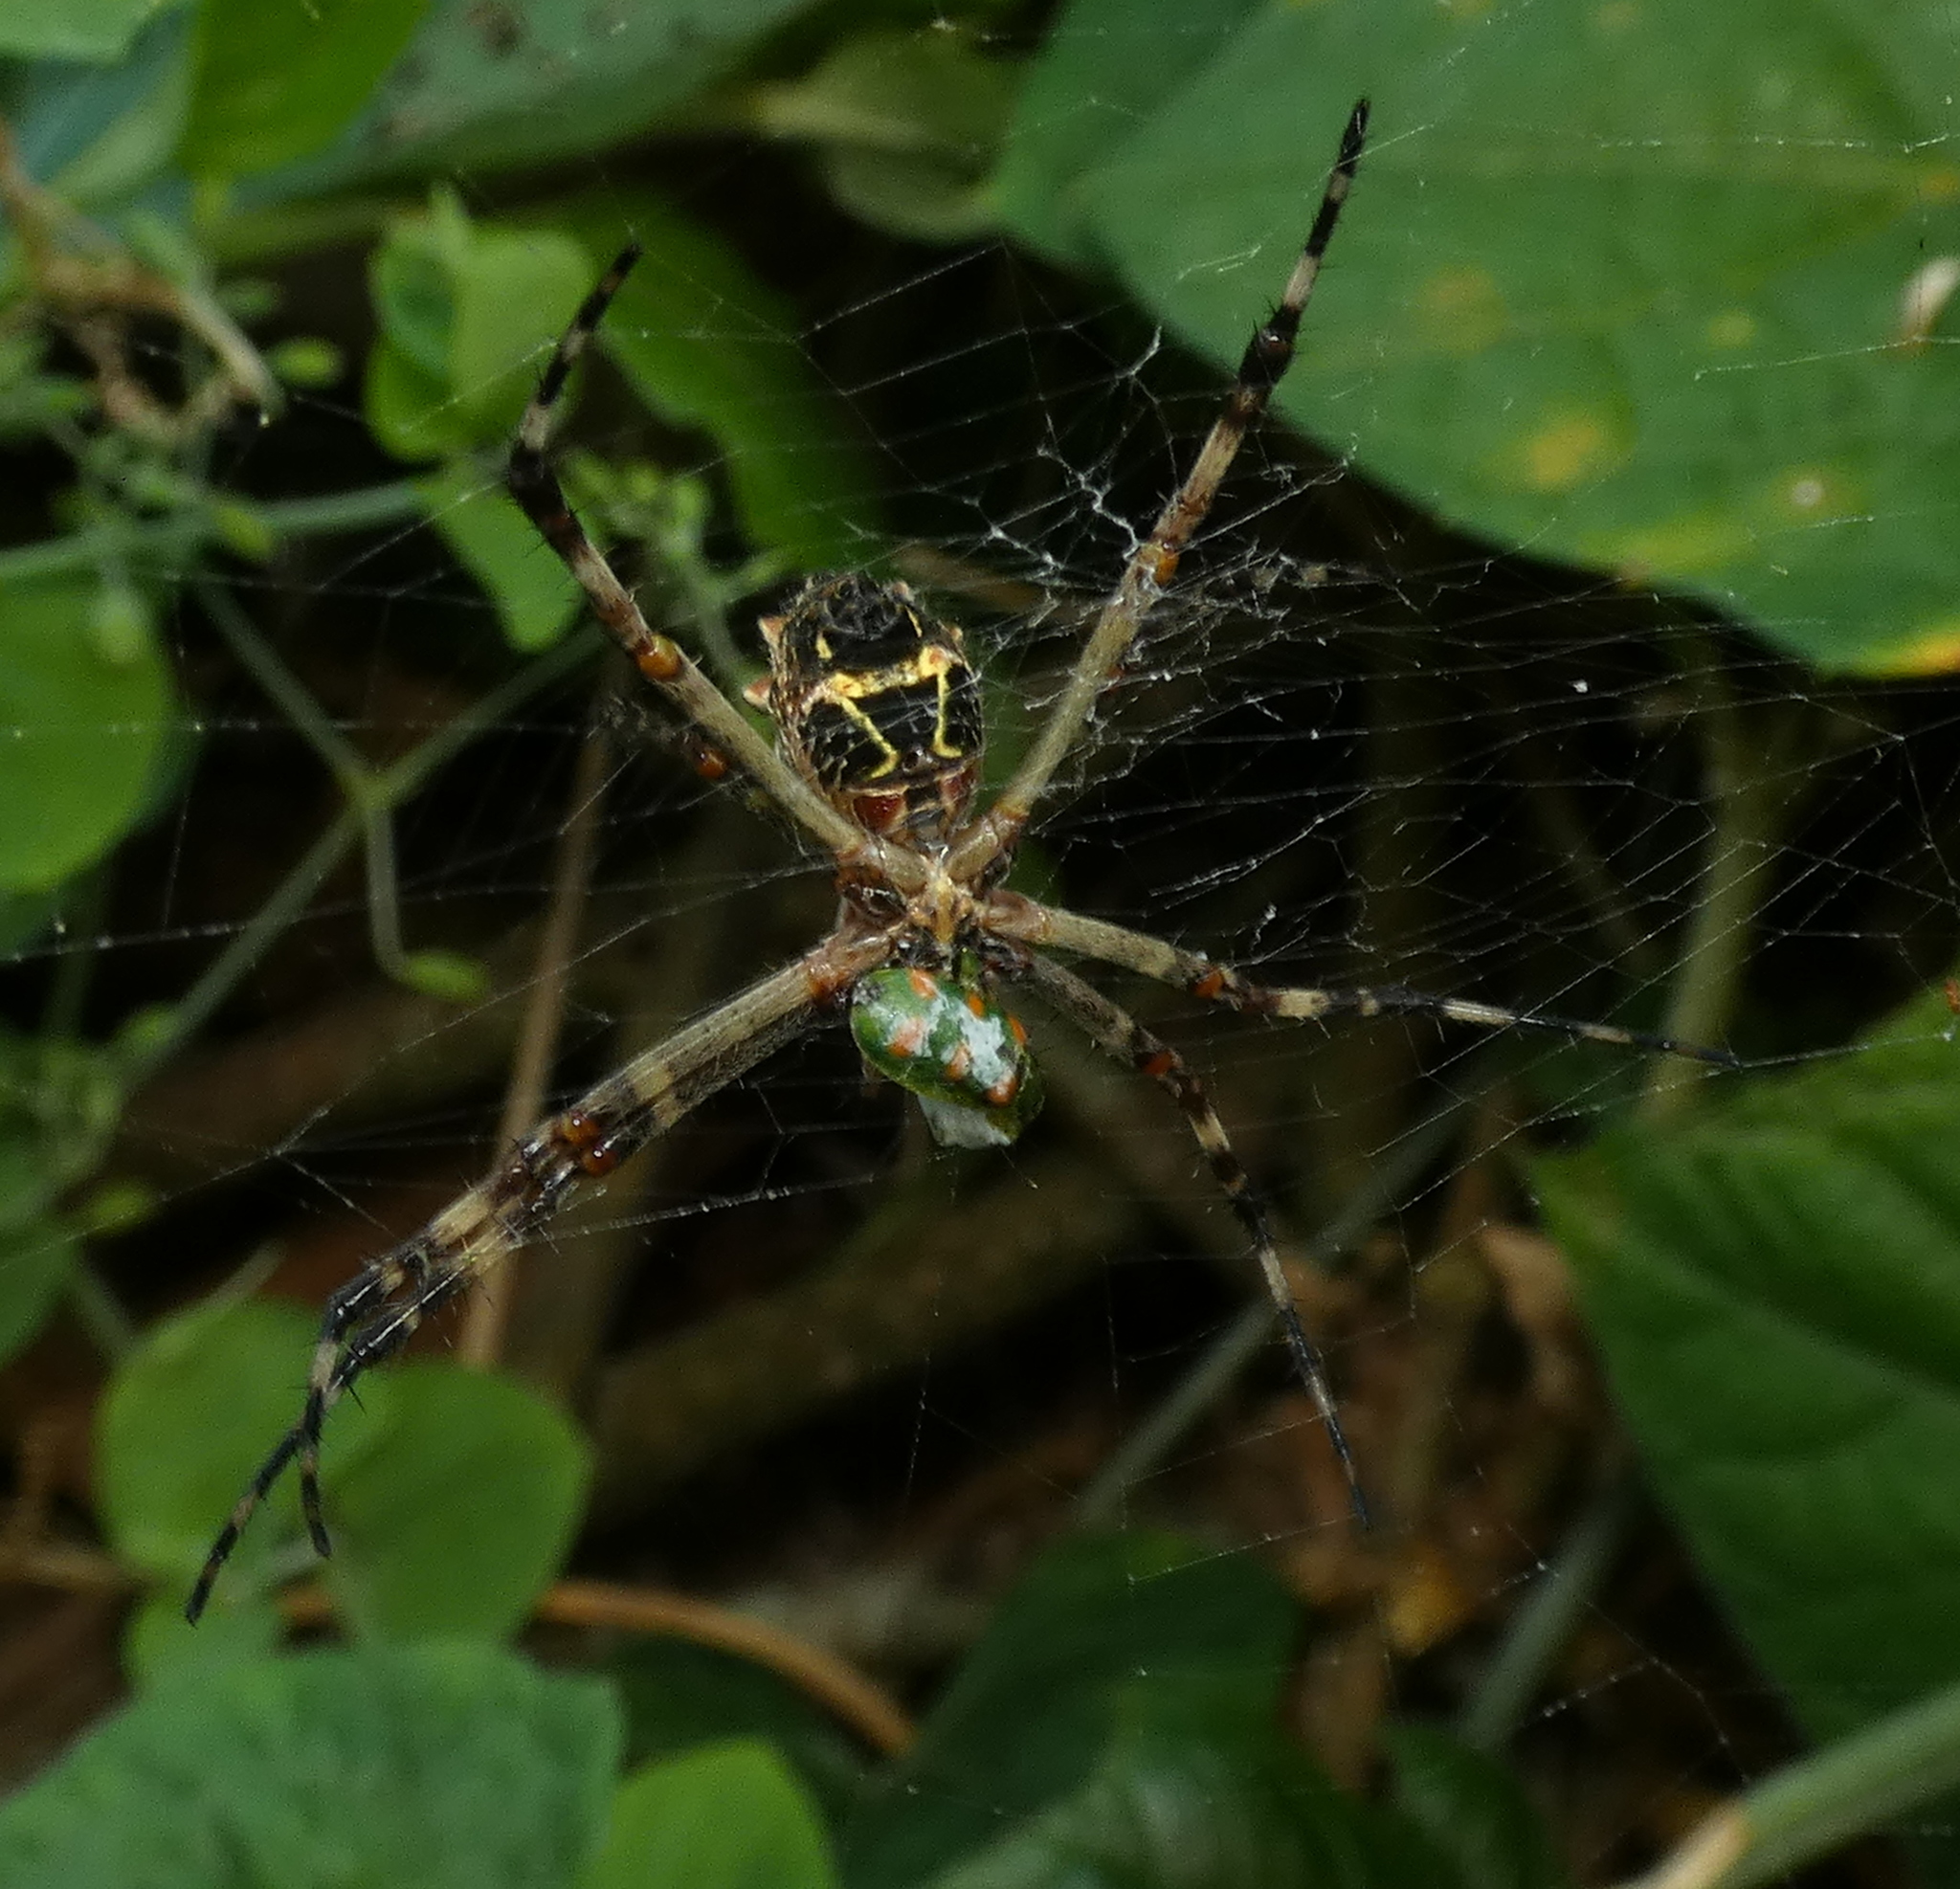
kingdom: Animalia
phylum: Arthropoda
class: Arachnida
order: Araneae
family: Araneidae
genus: Argiope
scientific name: Argiope argentata
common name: Orb weavers
